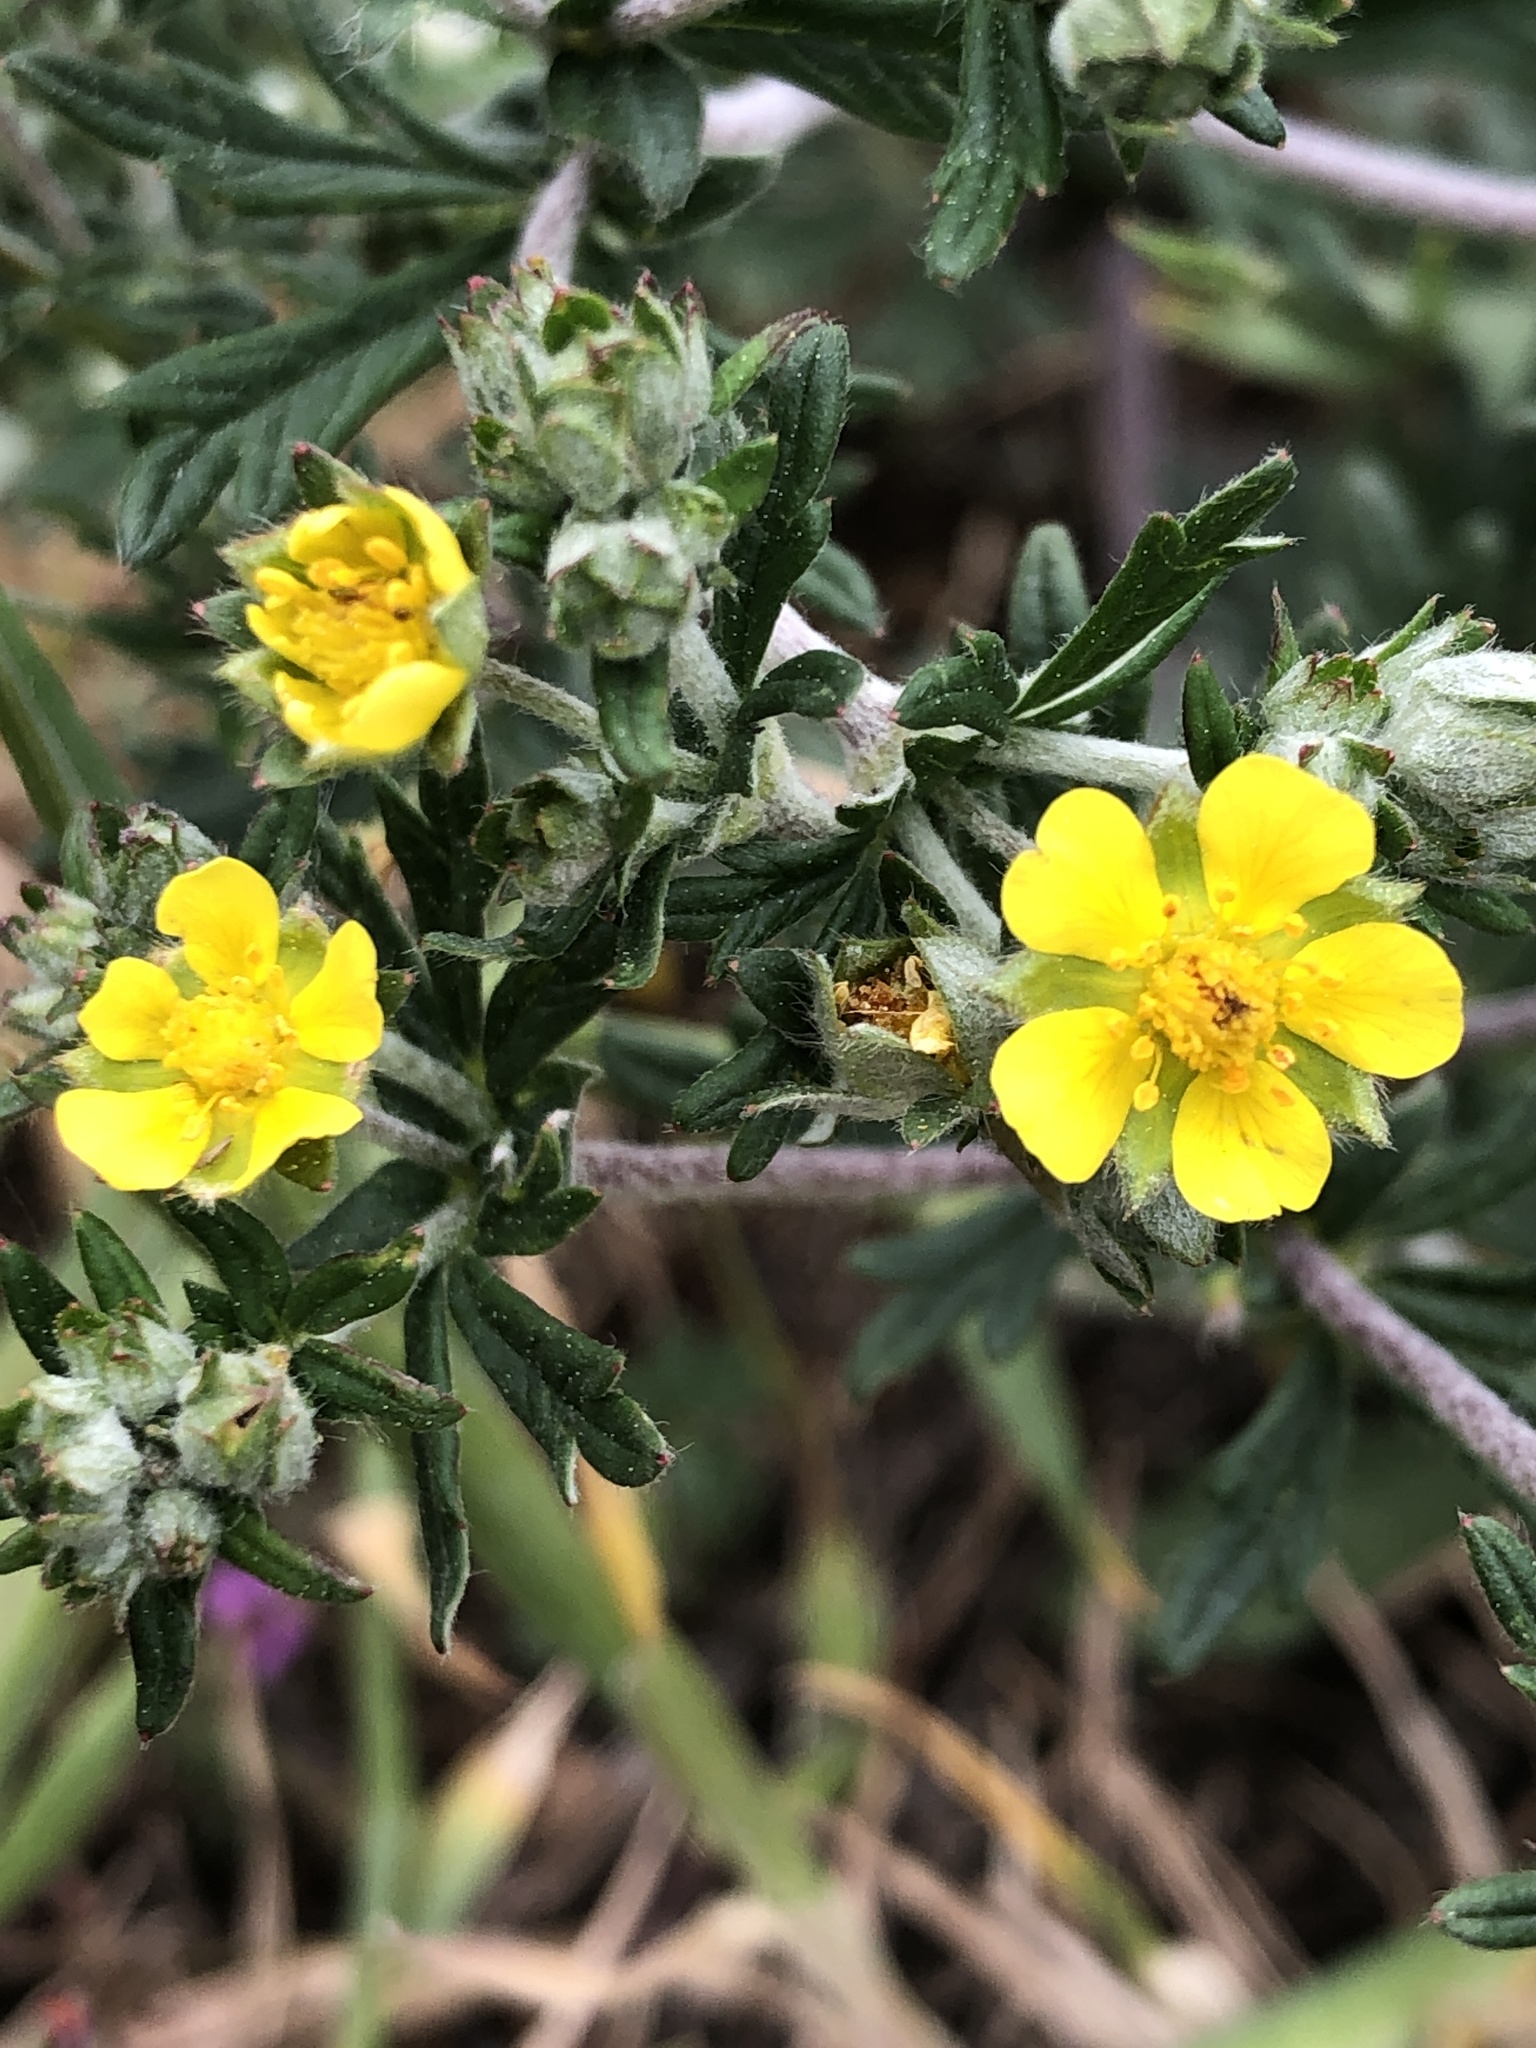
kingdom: Plantae
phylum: Tracheophyta
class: Magnoliopsida
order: Rosales
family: Rosaceae
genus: Potentilla
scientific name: Potentilla argentea
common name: Hoary cinquefoil
